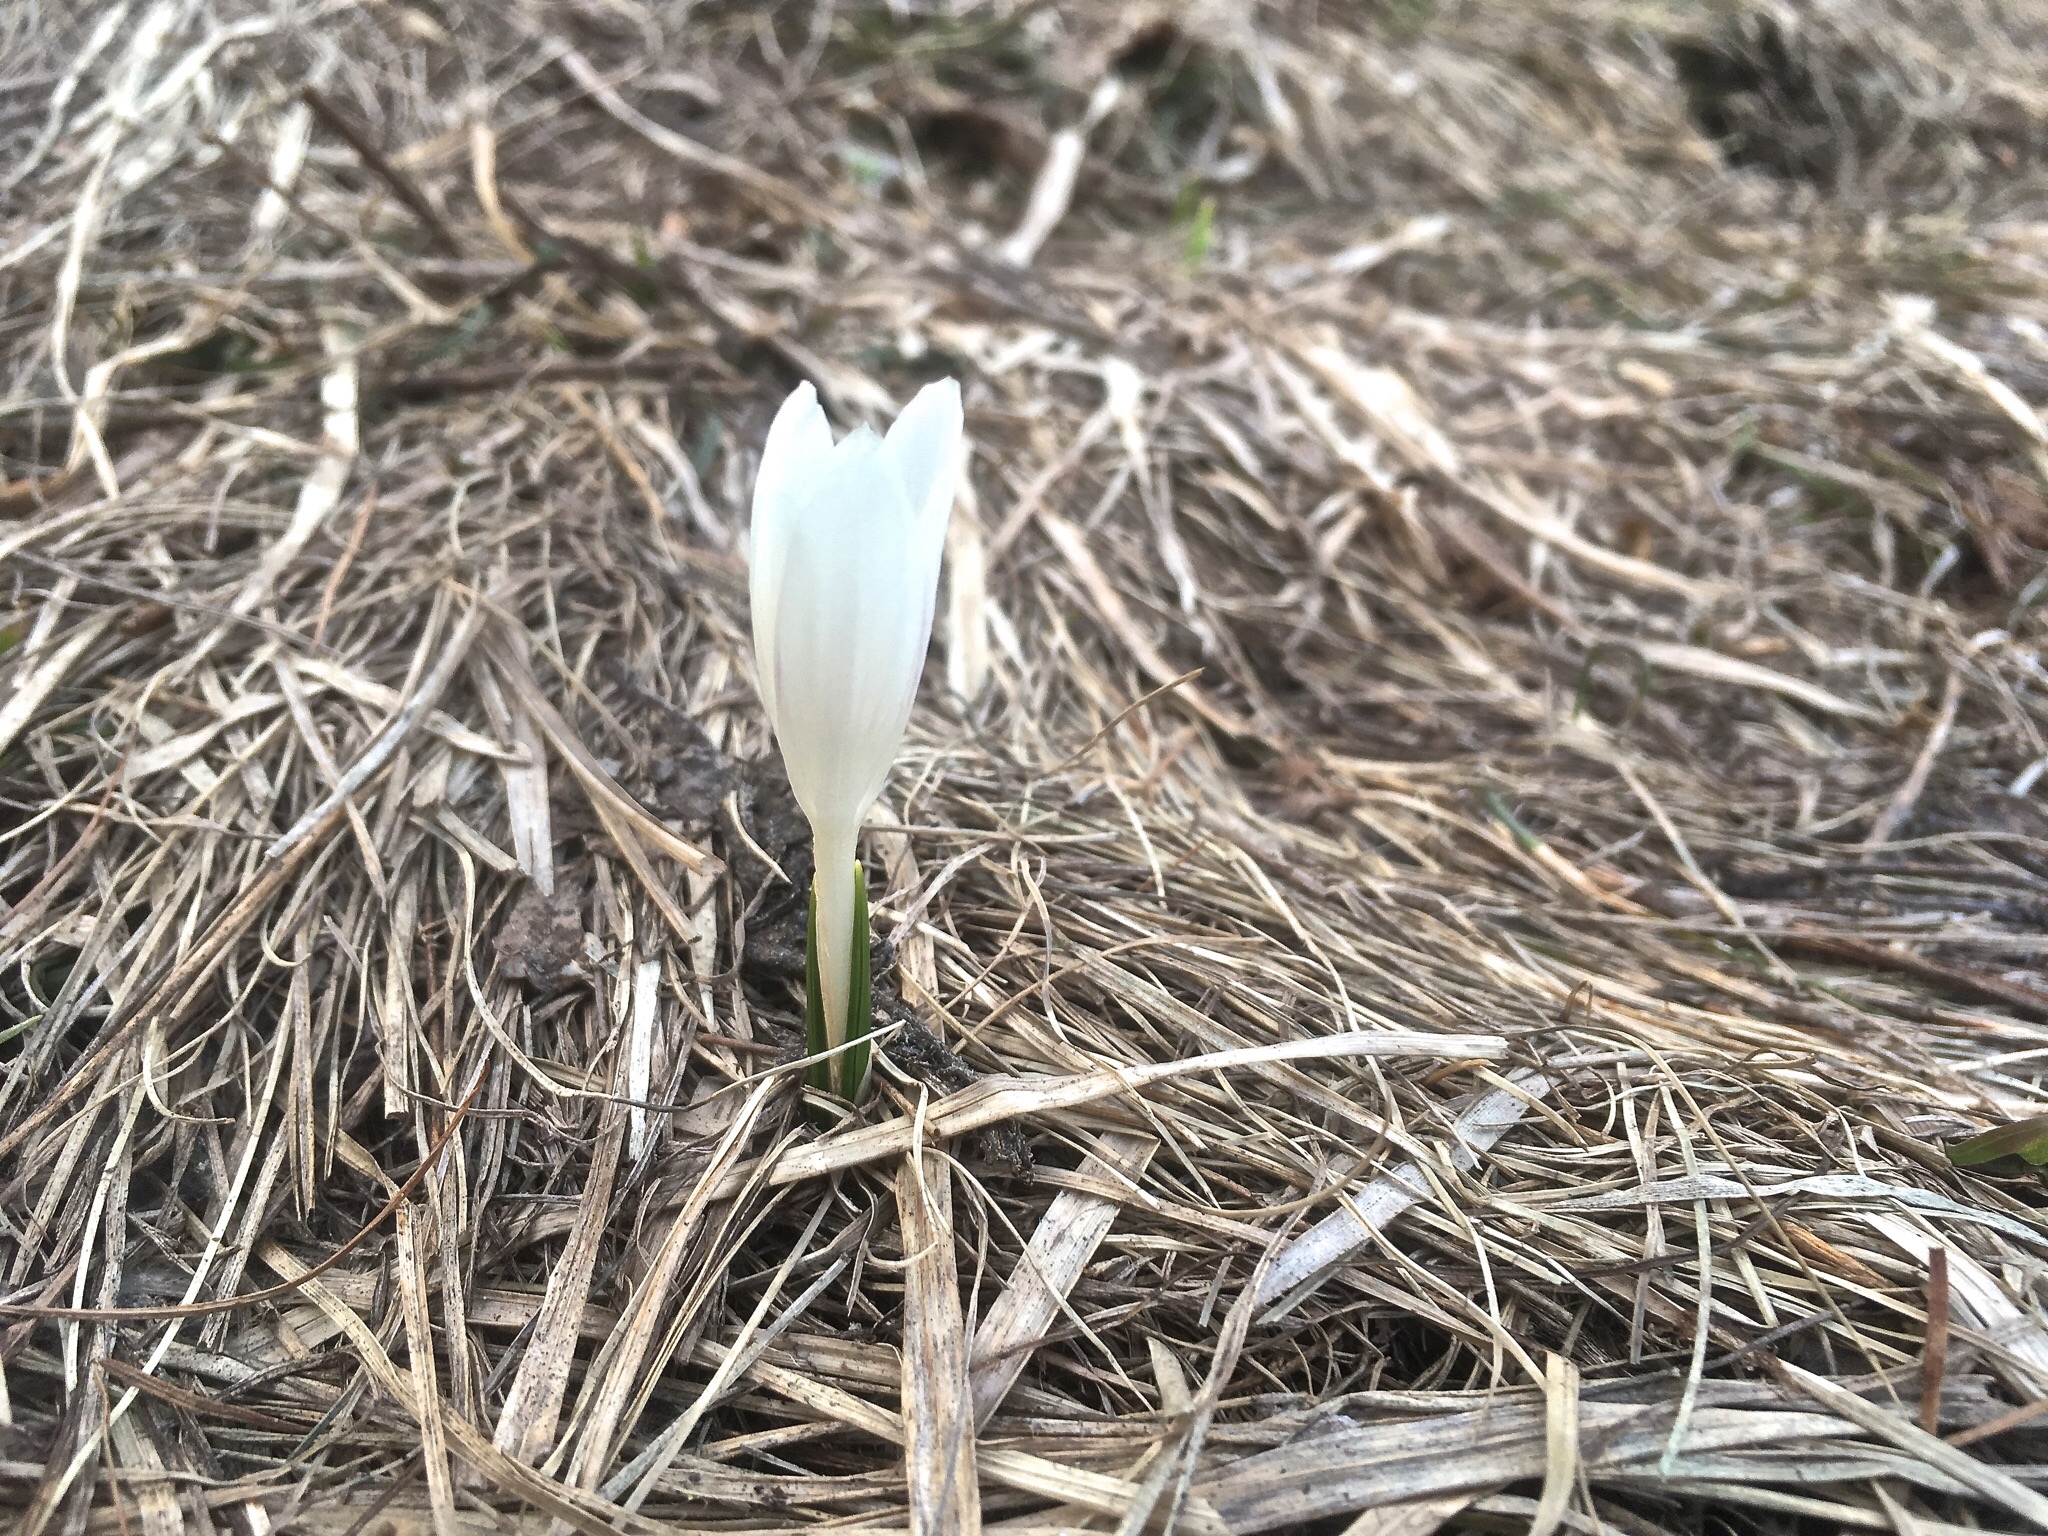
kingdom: Plantae
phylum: Tracheophyta
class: Liliopsida
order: Asparagales
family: Iridaceae
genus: Crocus
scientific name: Crocus vernus
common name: Spring crocus
